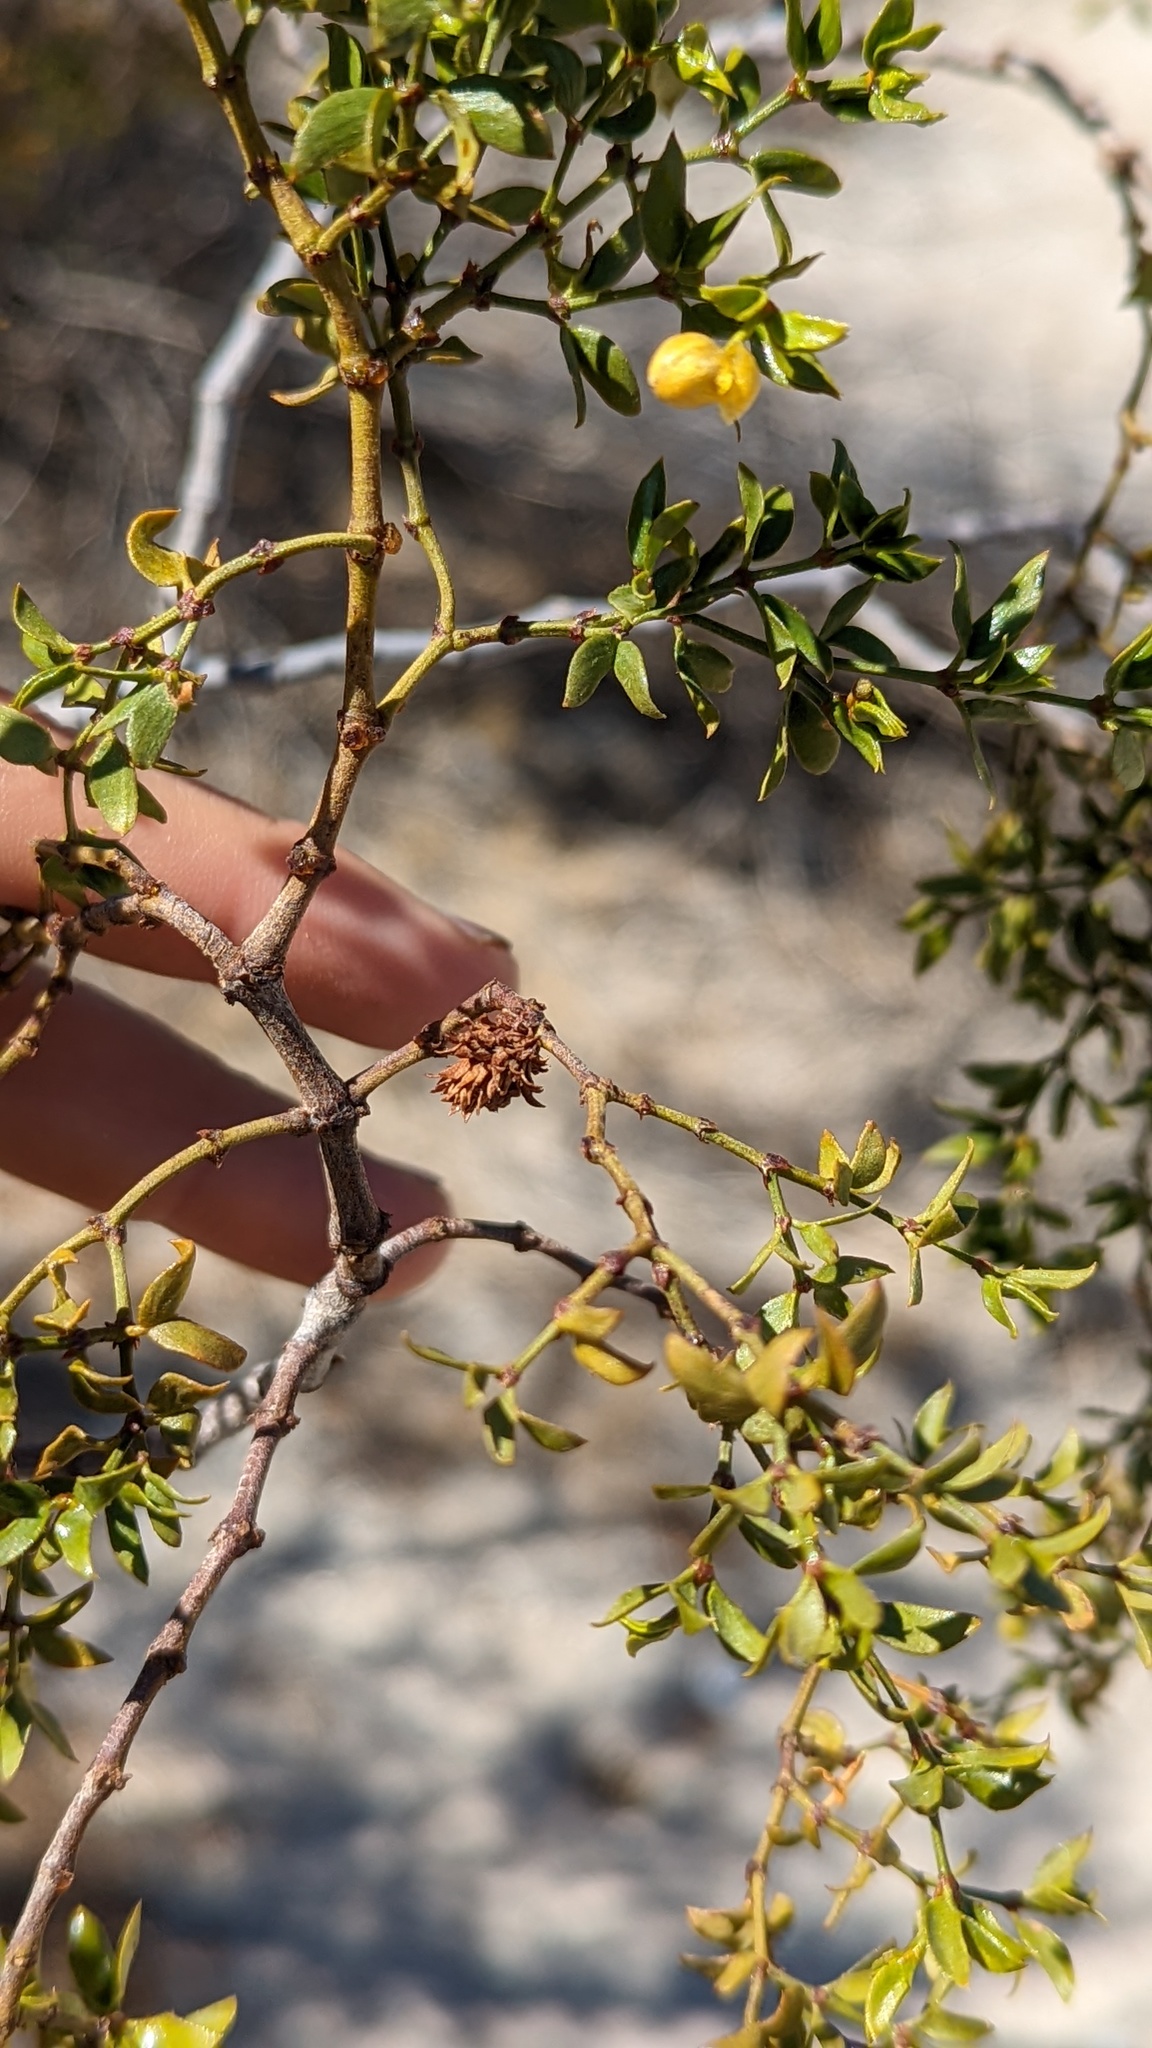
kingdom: Animalia
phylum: Arthropoda
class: Insecta
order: Diptera
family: Cecidomyiidae
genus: Asphondylia
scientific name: Asphondylia rosetta
